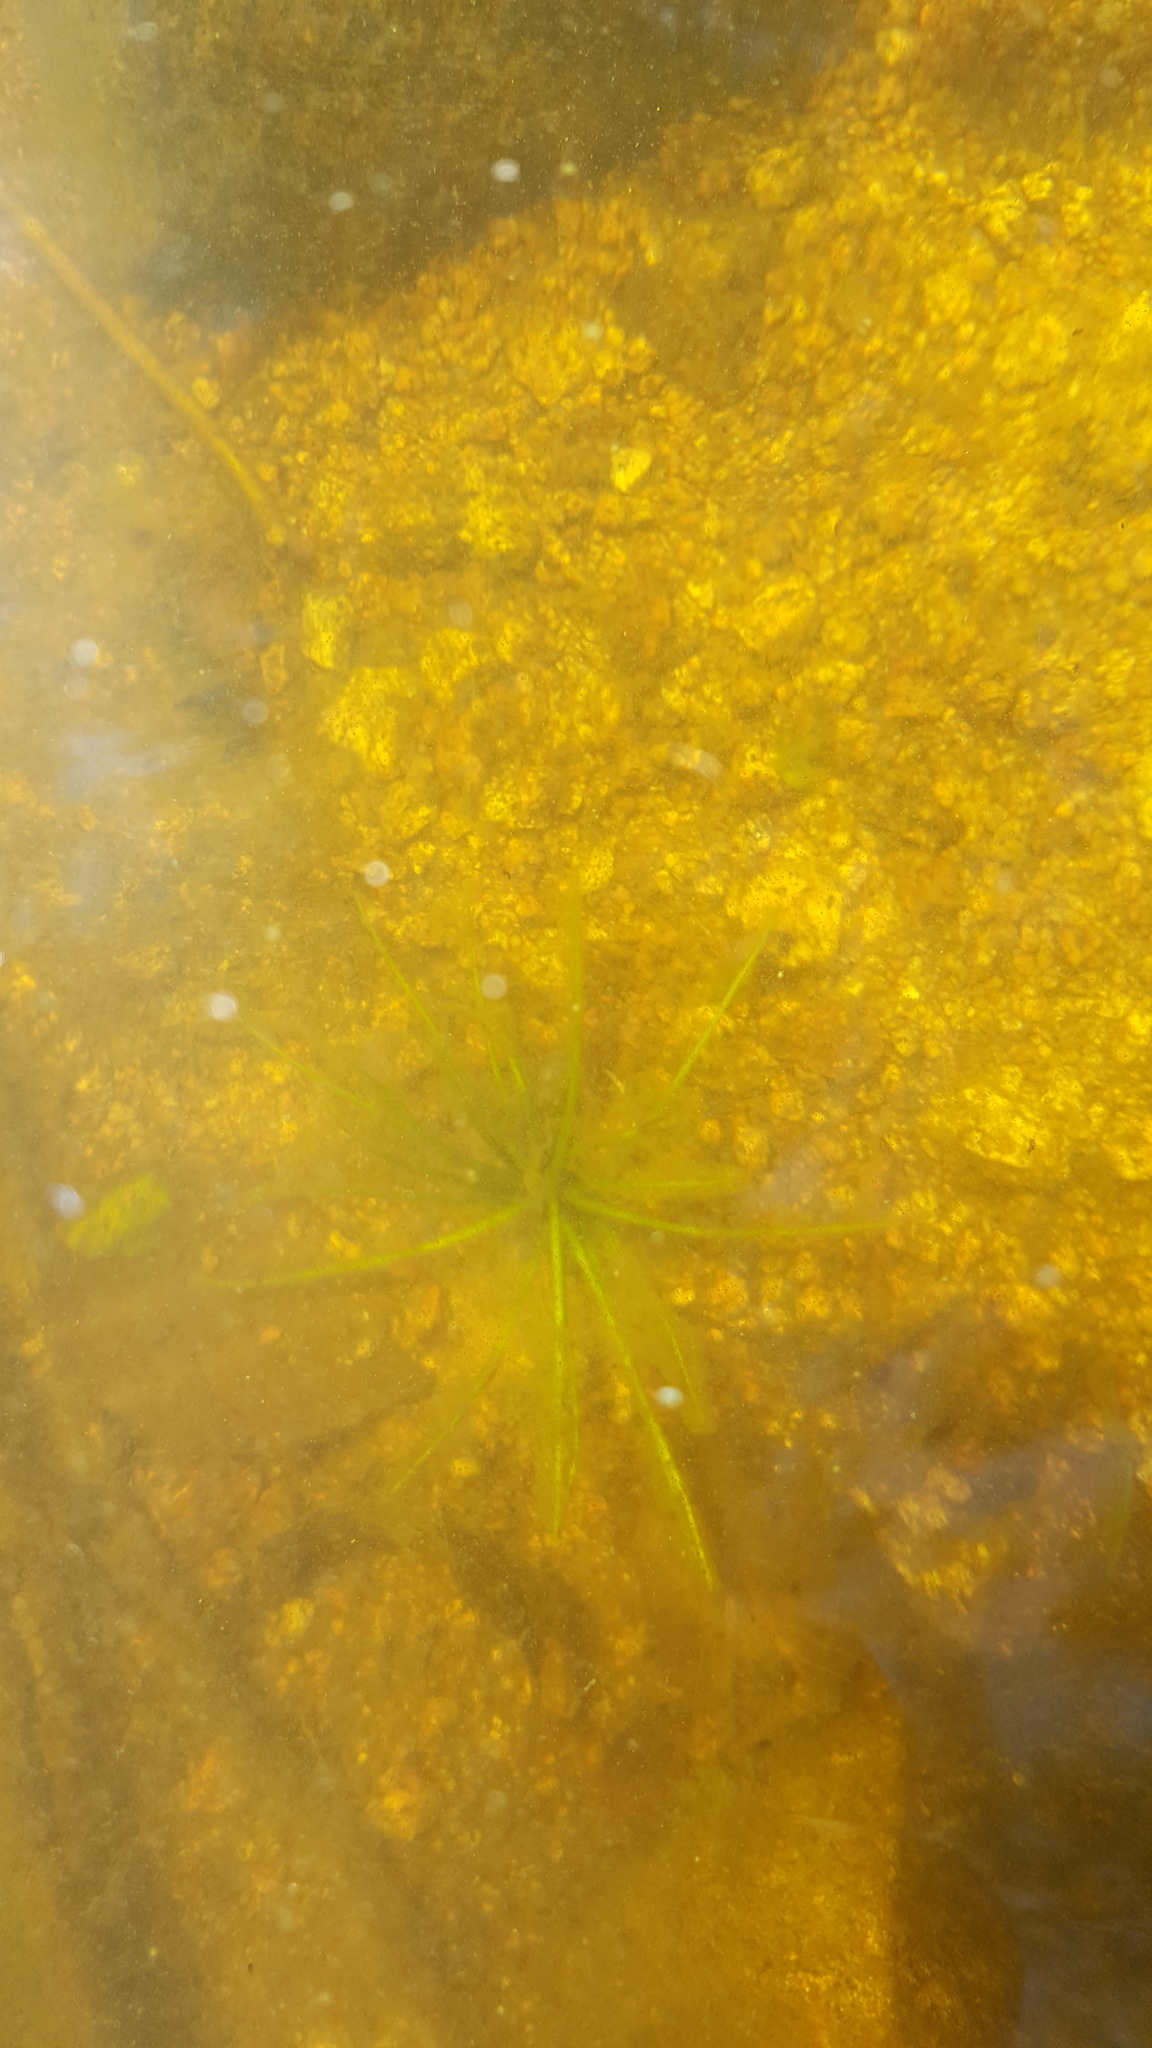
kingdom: Plantae
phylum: Tracheophyta
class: Lycopodiopsida
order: Isoetales
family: Isoetaceae
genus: Isoetes
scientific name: Isoetes echinospora
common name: Spring quillwort
